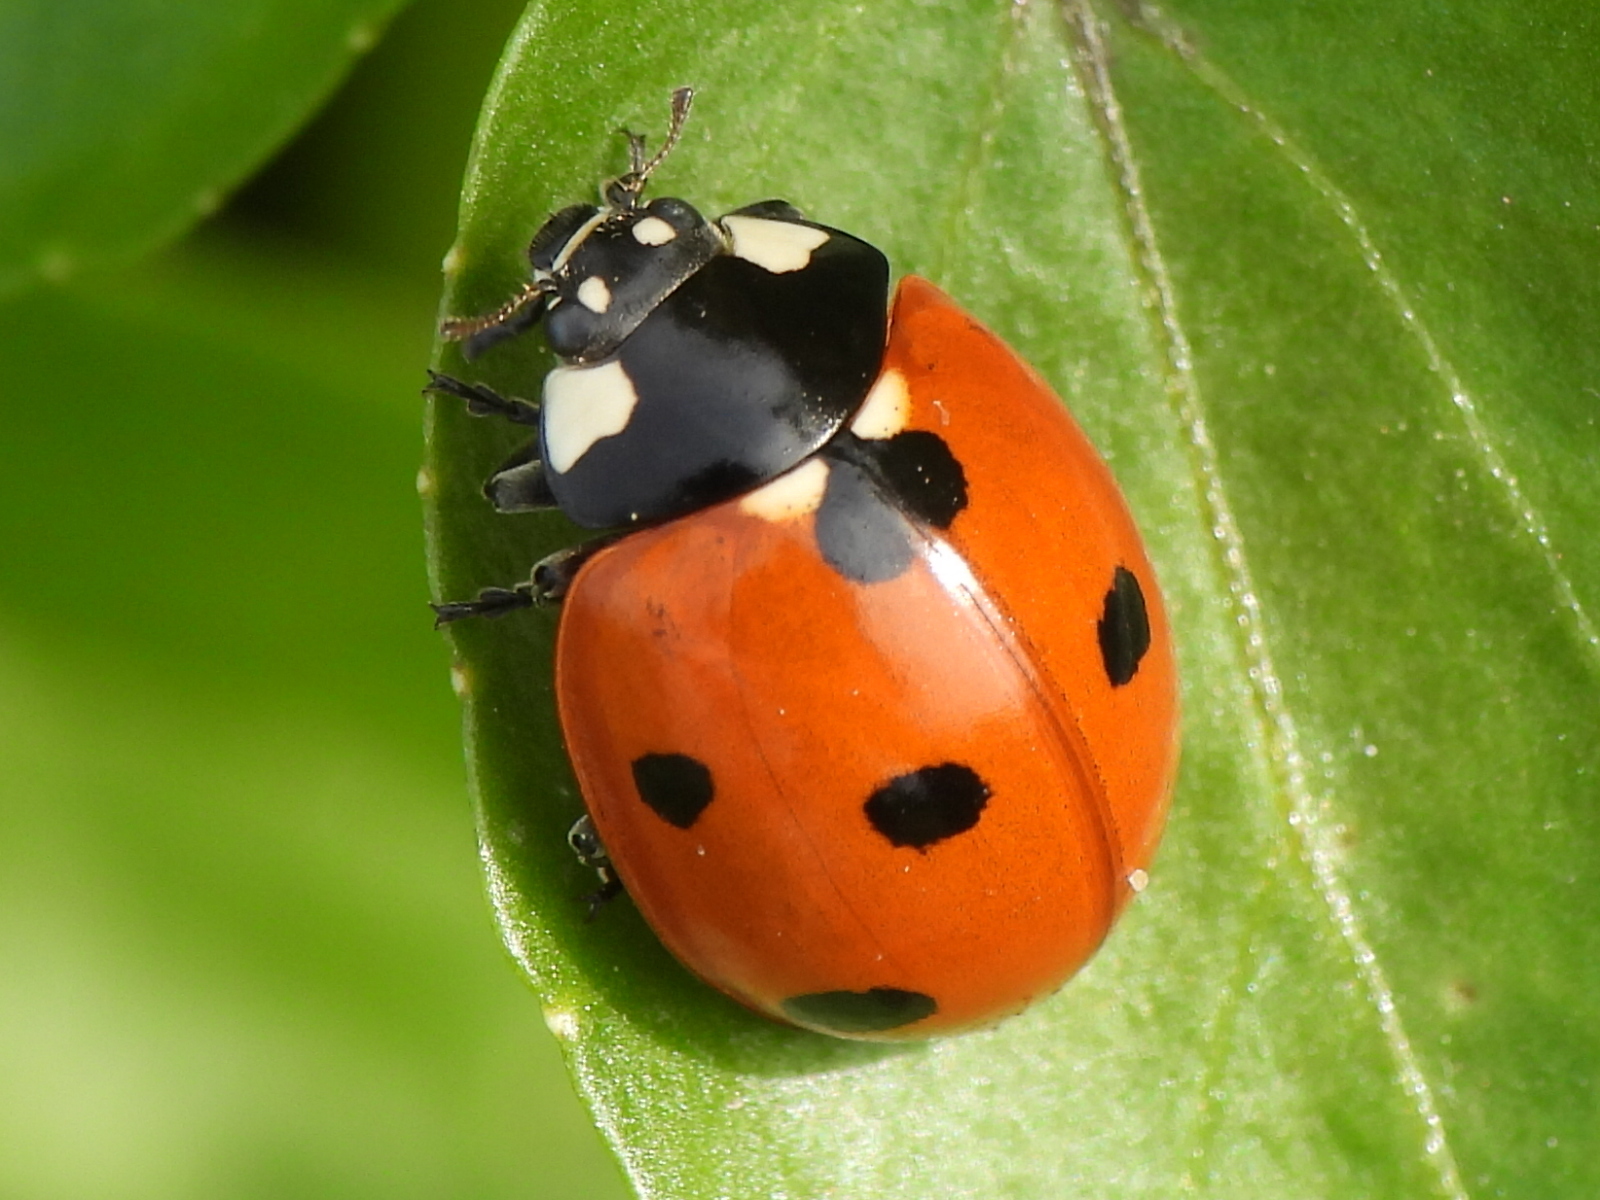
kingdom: Animalia
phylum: Arthropoda
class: Insecta
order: Coleoptera
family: Coccinellidae
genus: Coccinella
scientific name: Coccinella septempunctata
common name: Sevenspotted lady beetle
